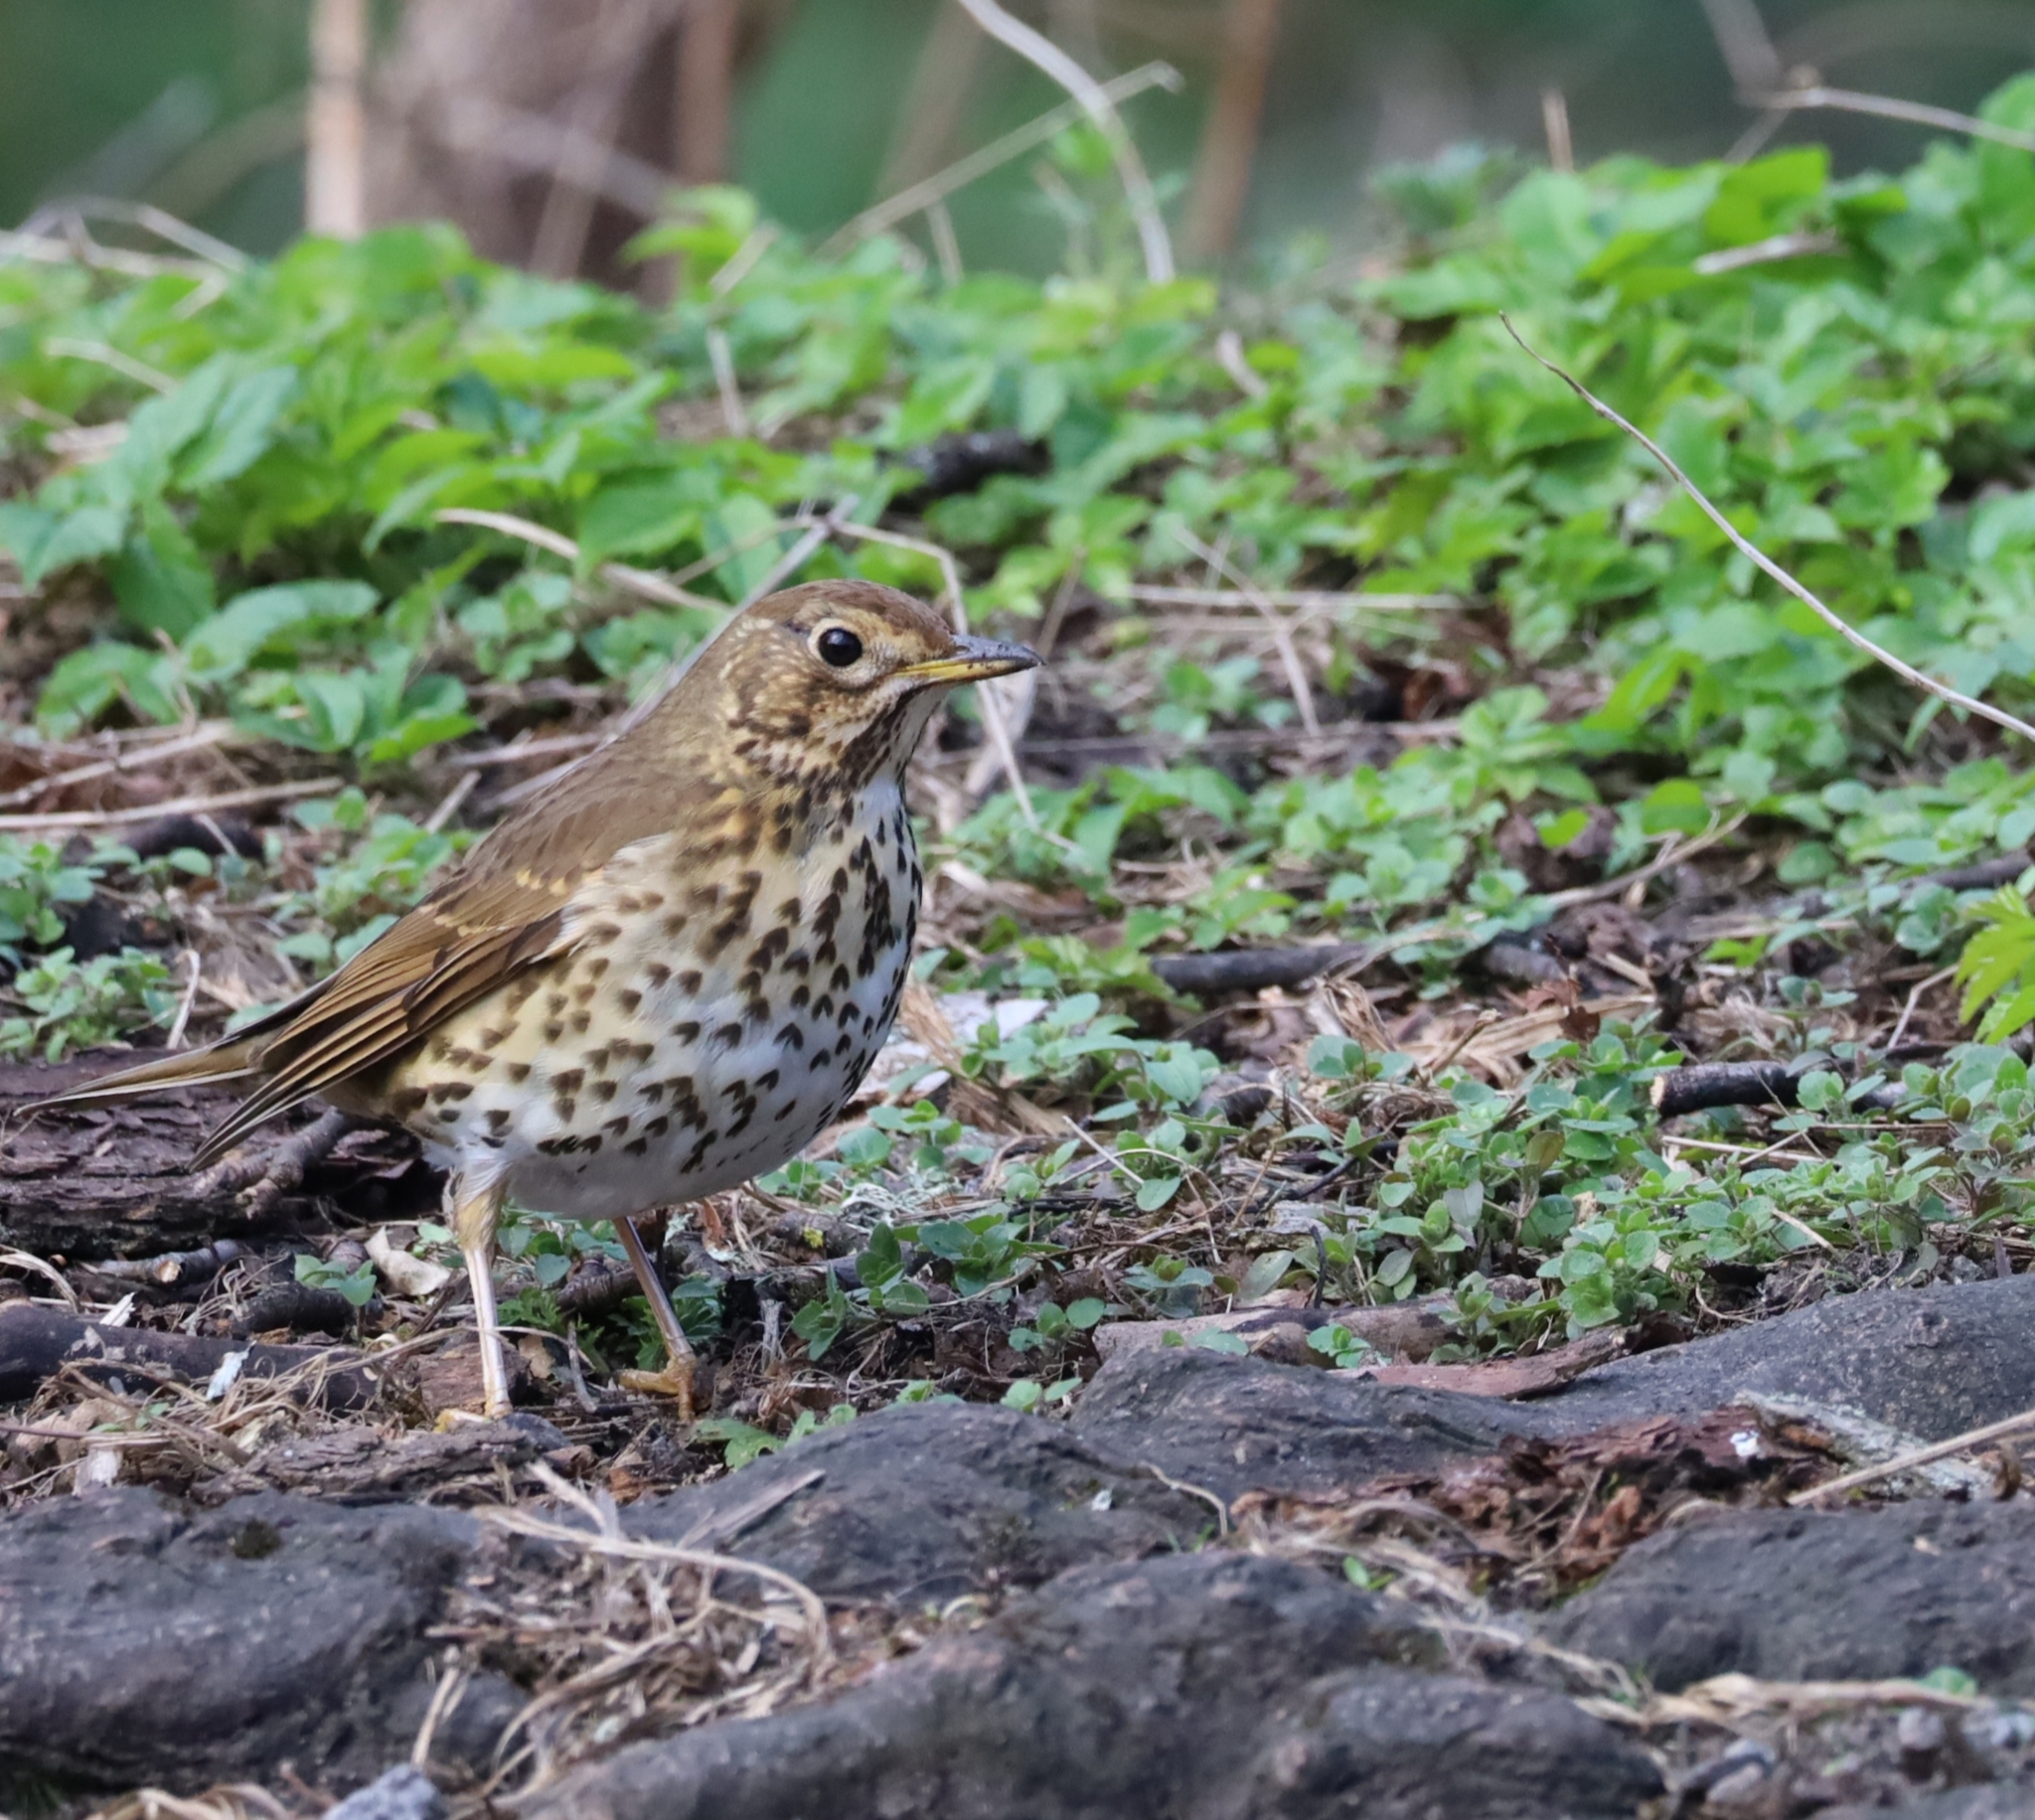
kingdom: Animalia
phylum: Chordata
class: Aves
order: Passeriformes
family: Turdidae
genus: Turdus
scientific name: Turdus philomelos
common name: Song thrush
